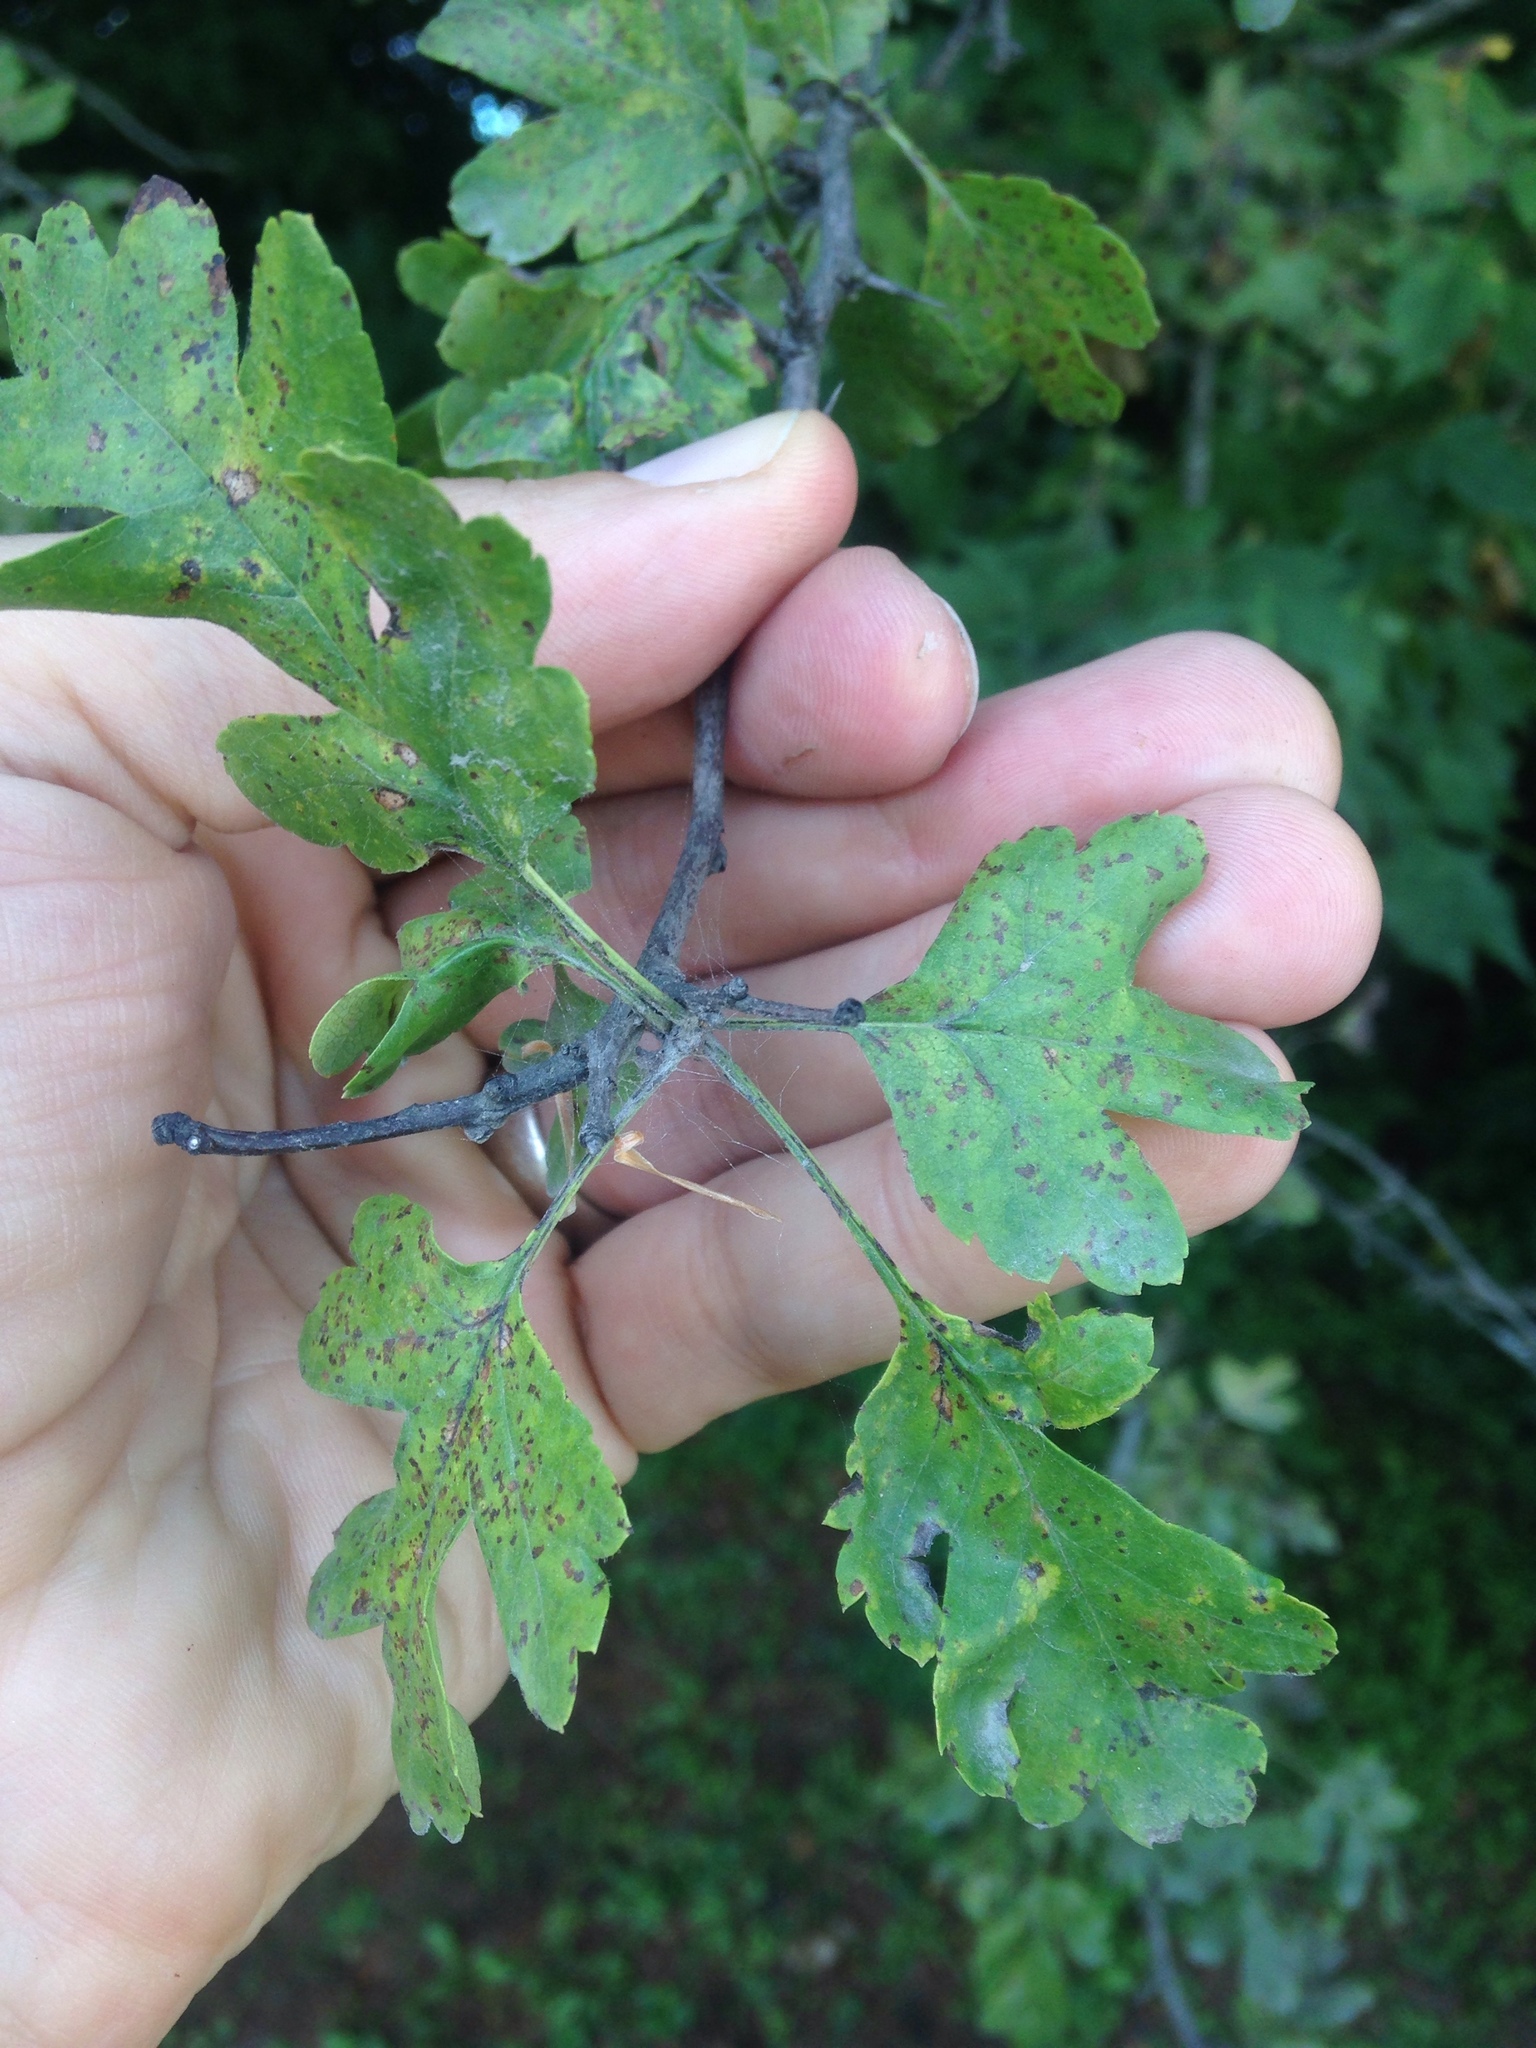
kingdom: Plantae
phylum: Tracheophyta
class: Magnoliopsida
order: Rosales
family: Rosaceae
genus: Crataegus
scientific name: Crataegus monogyna
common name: Hawthorn
